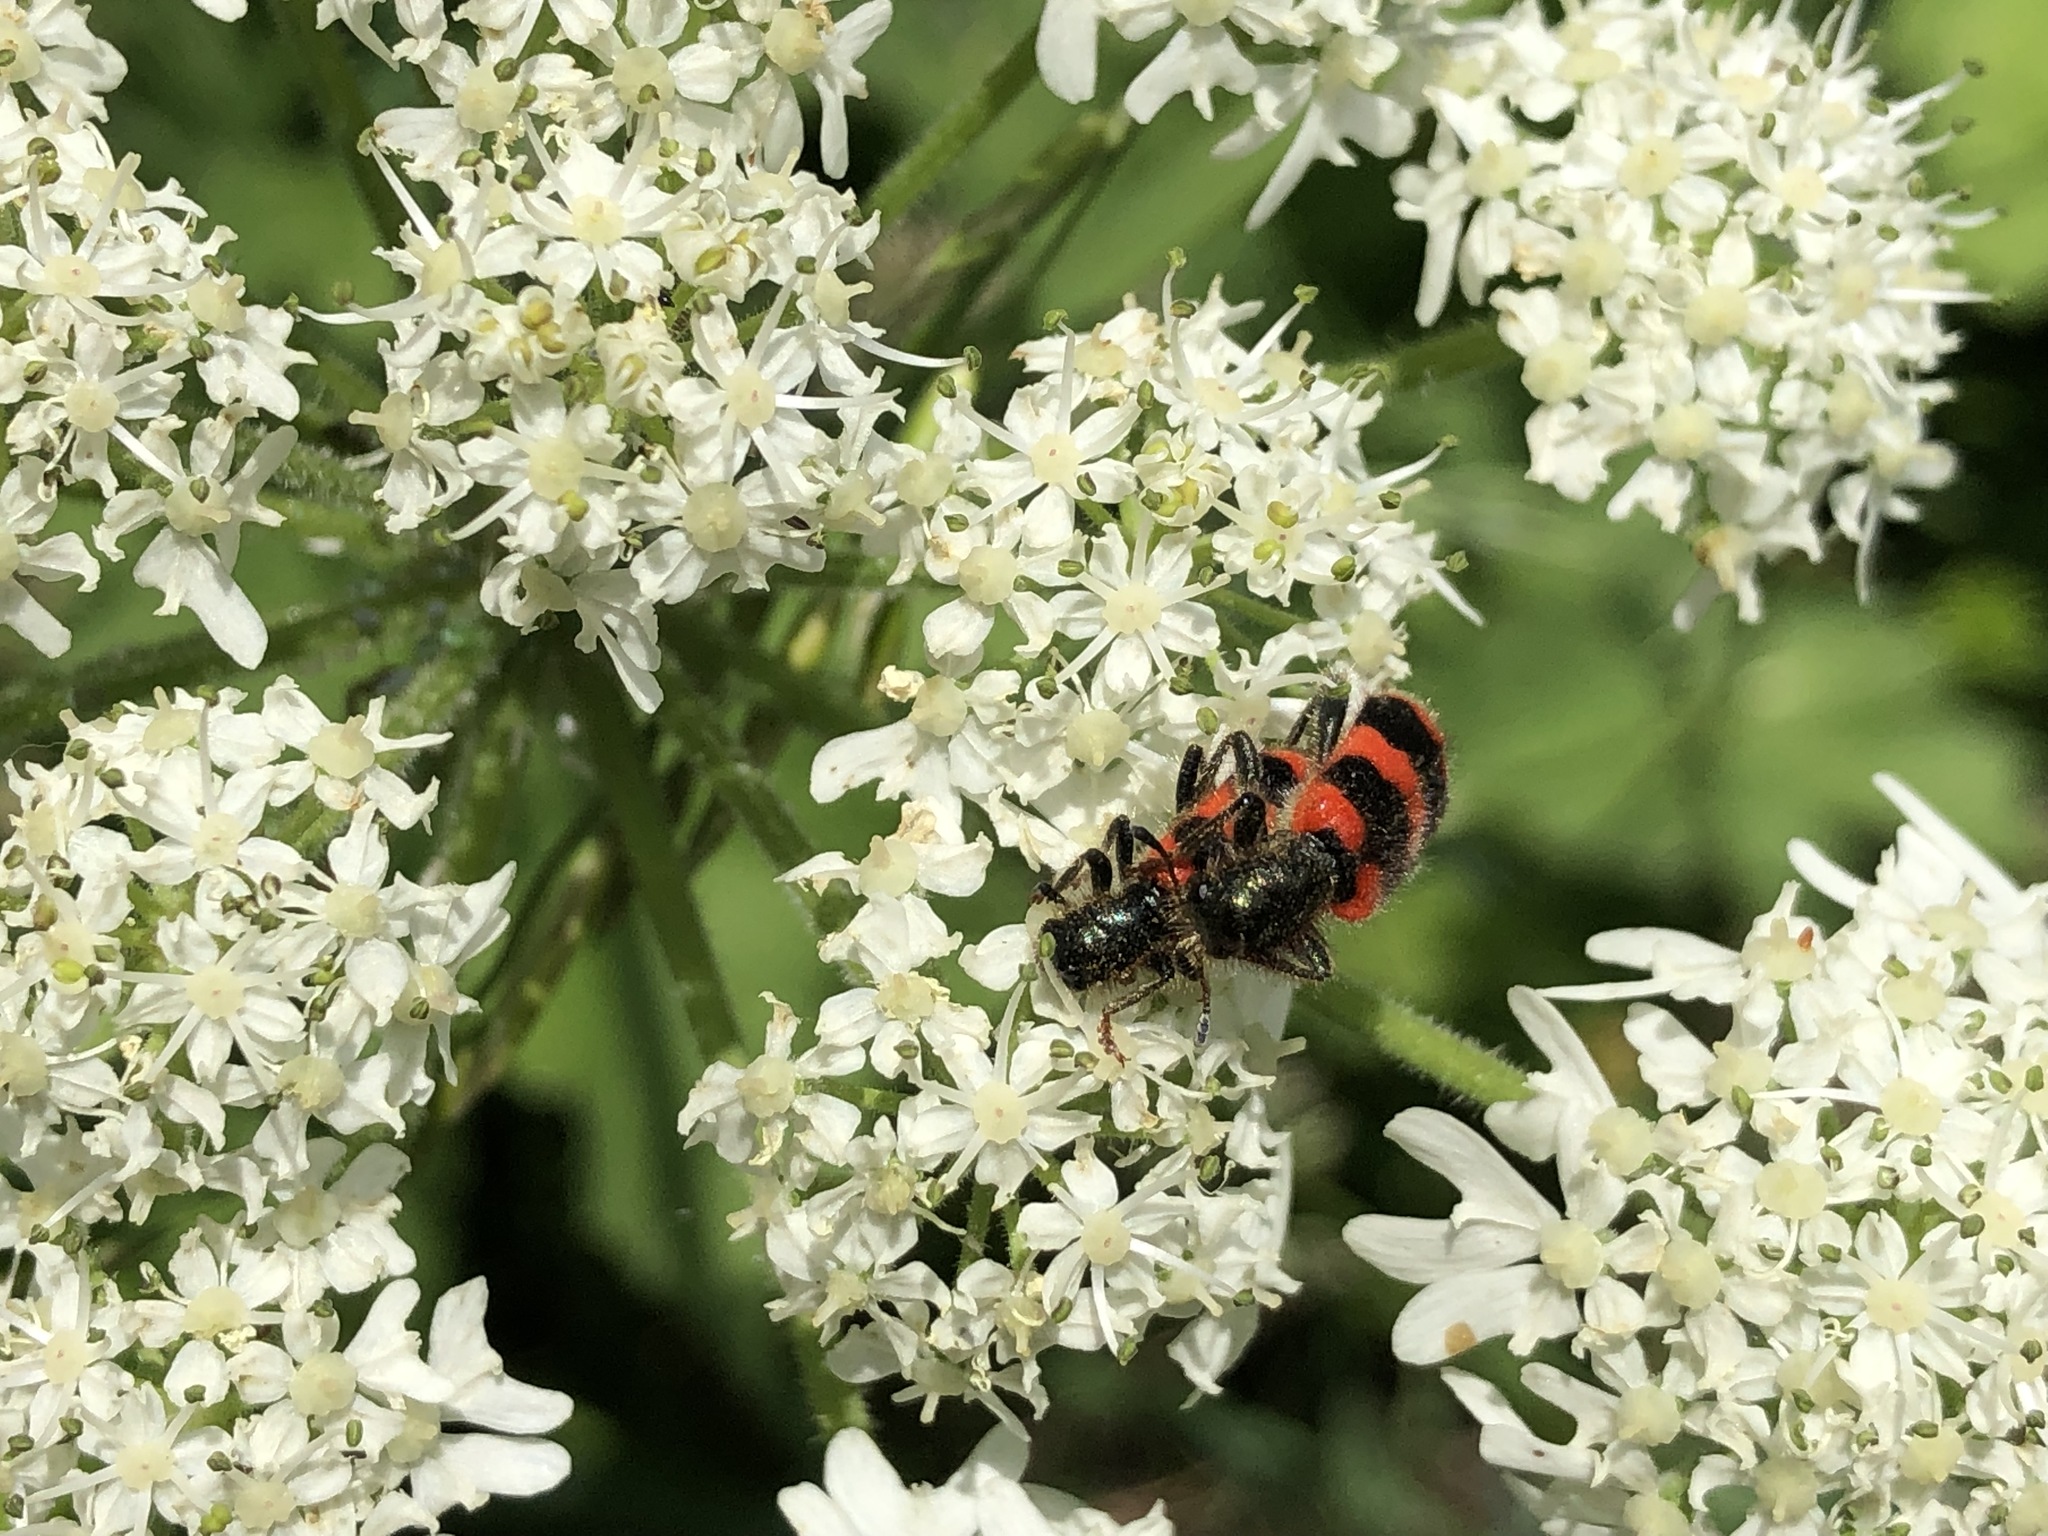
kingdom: Animalia
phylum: Arthropoda
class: Insecta
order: Coleoptera
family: Cleridae
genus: Trichodes
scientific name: Trichodes apiarius
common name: Bee-eating beetle
